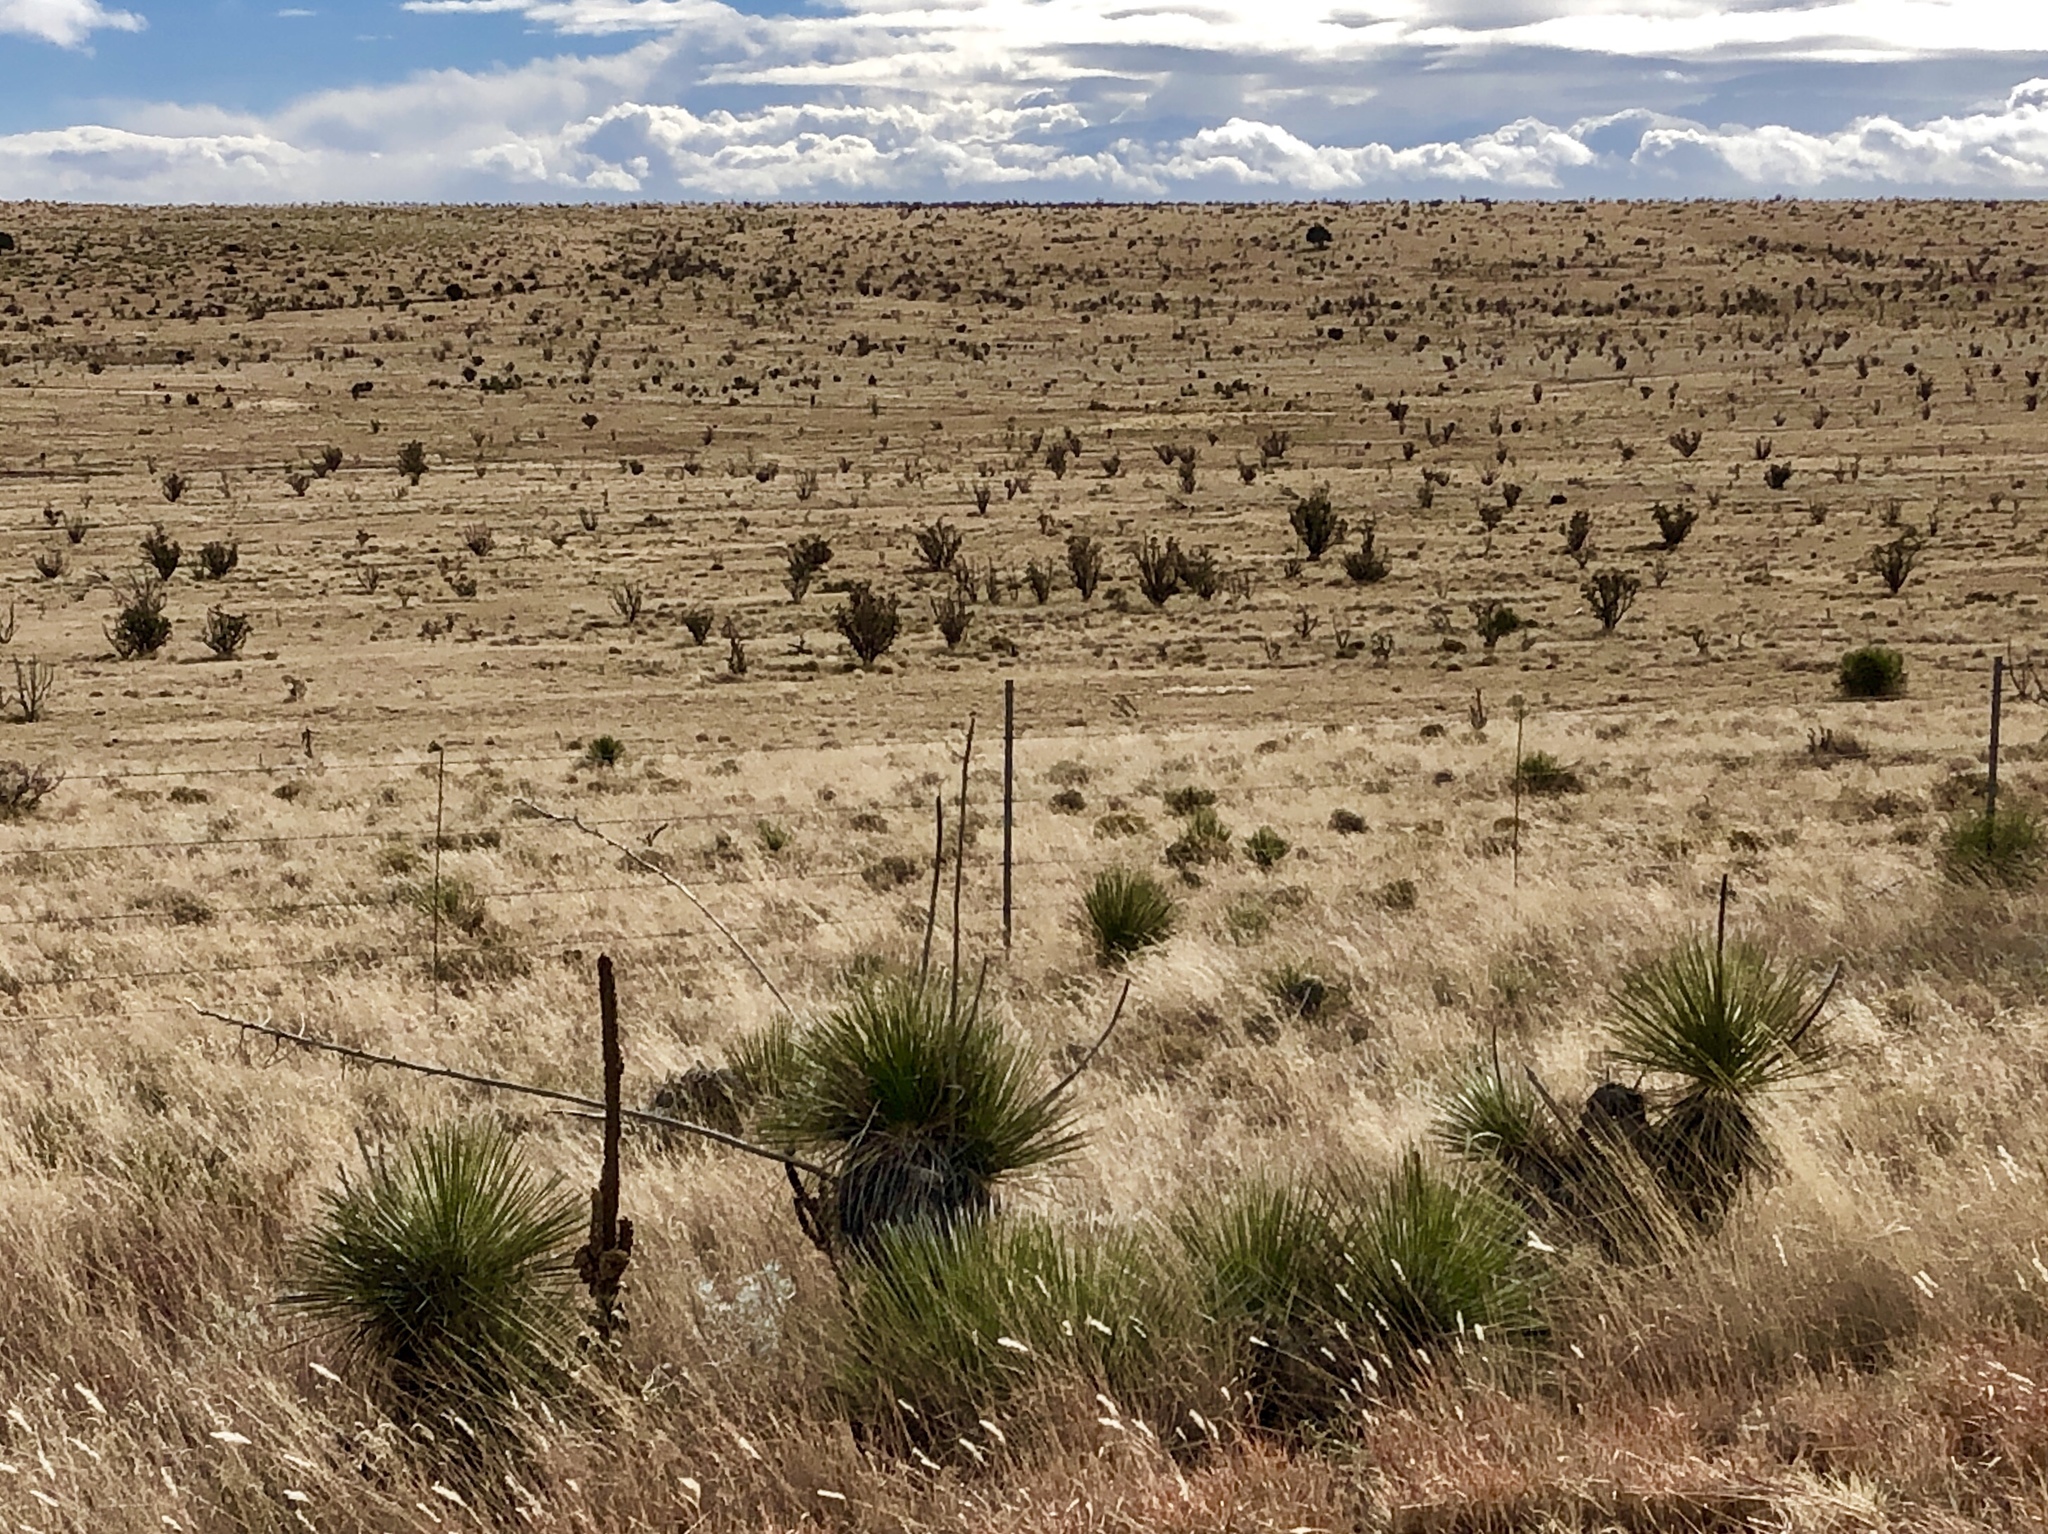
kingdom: Plantae
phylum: Tracheophyta
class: Liliopsida
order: Asparagales
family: Asparagaceae
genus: Yucca
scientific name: Yucca elata
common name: Palmella
